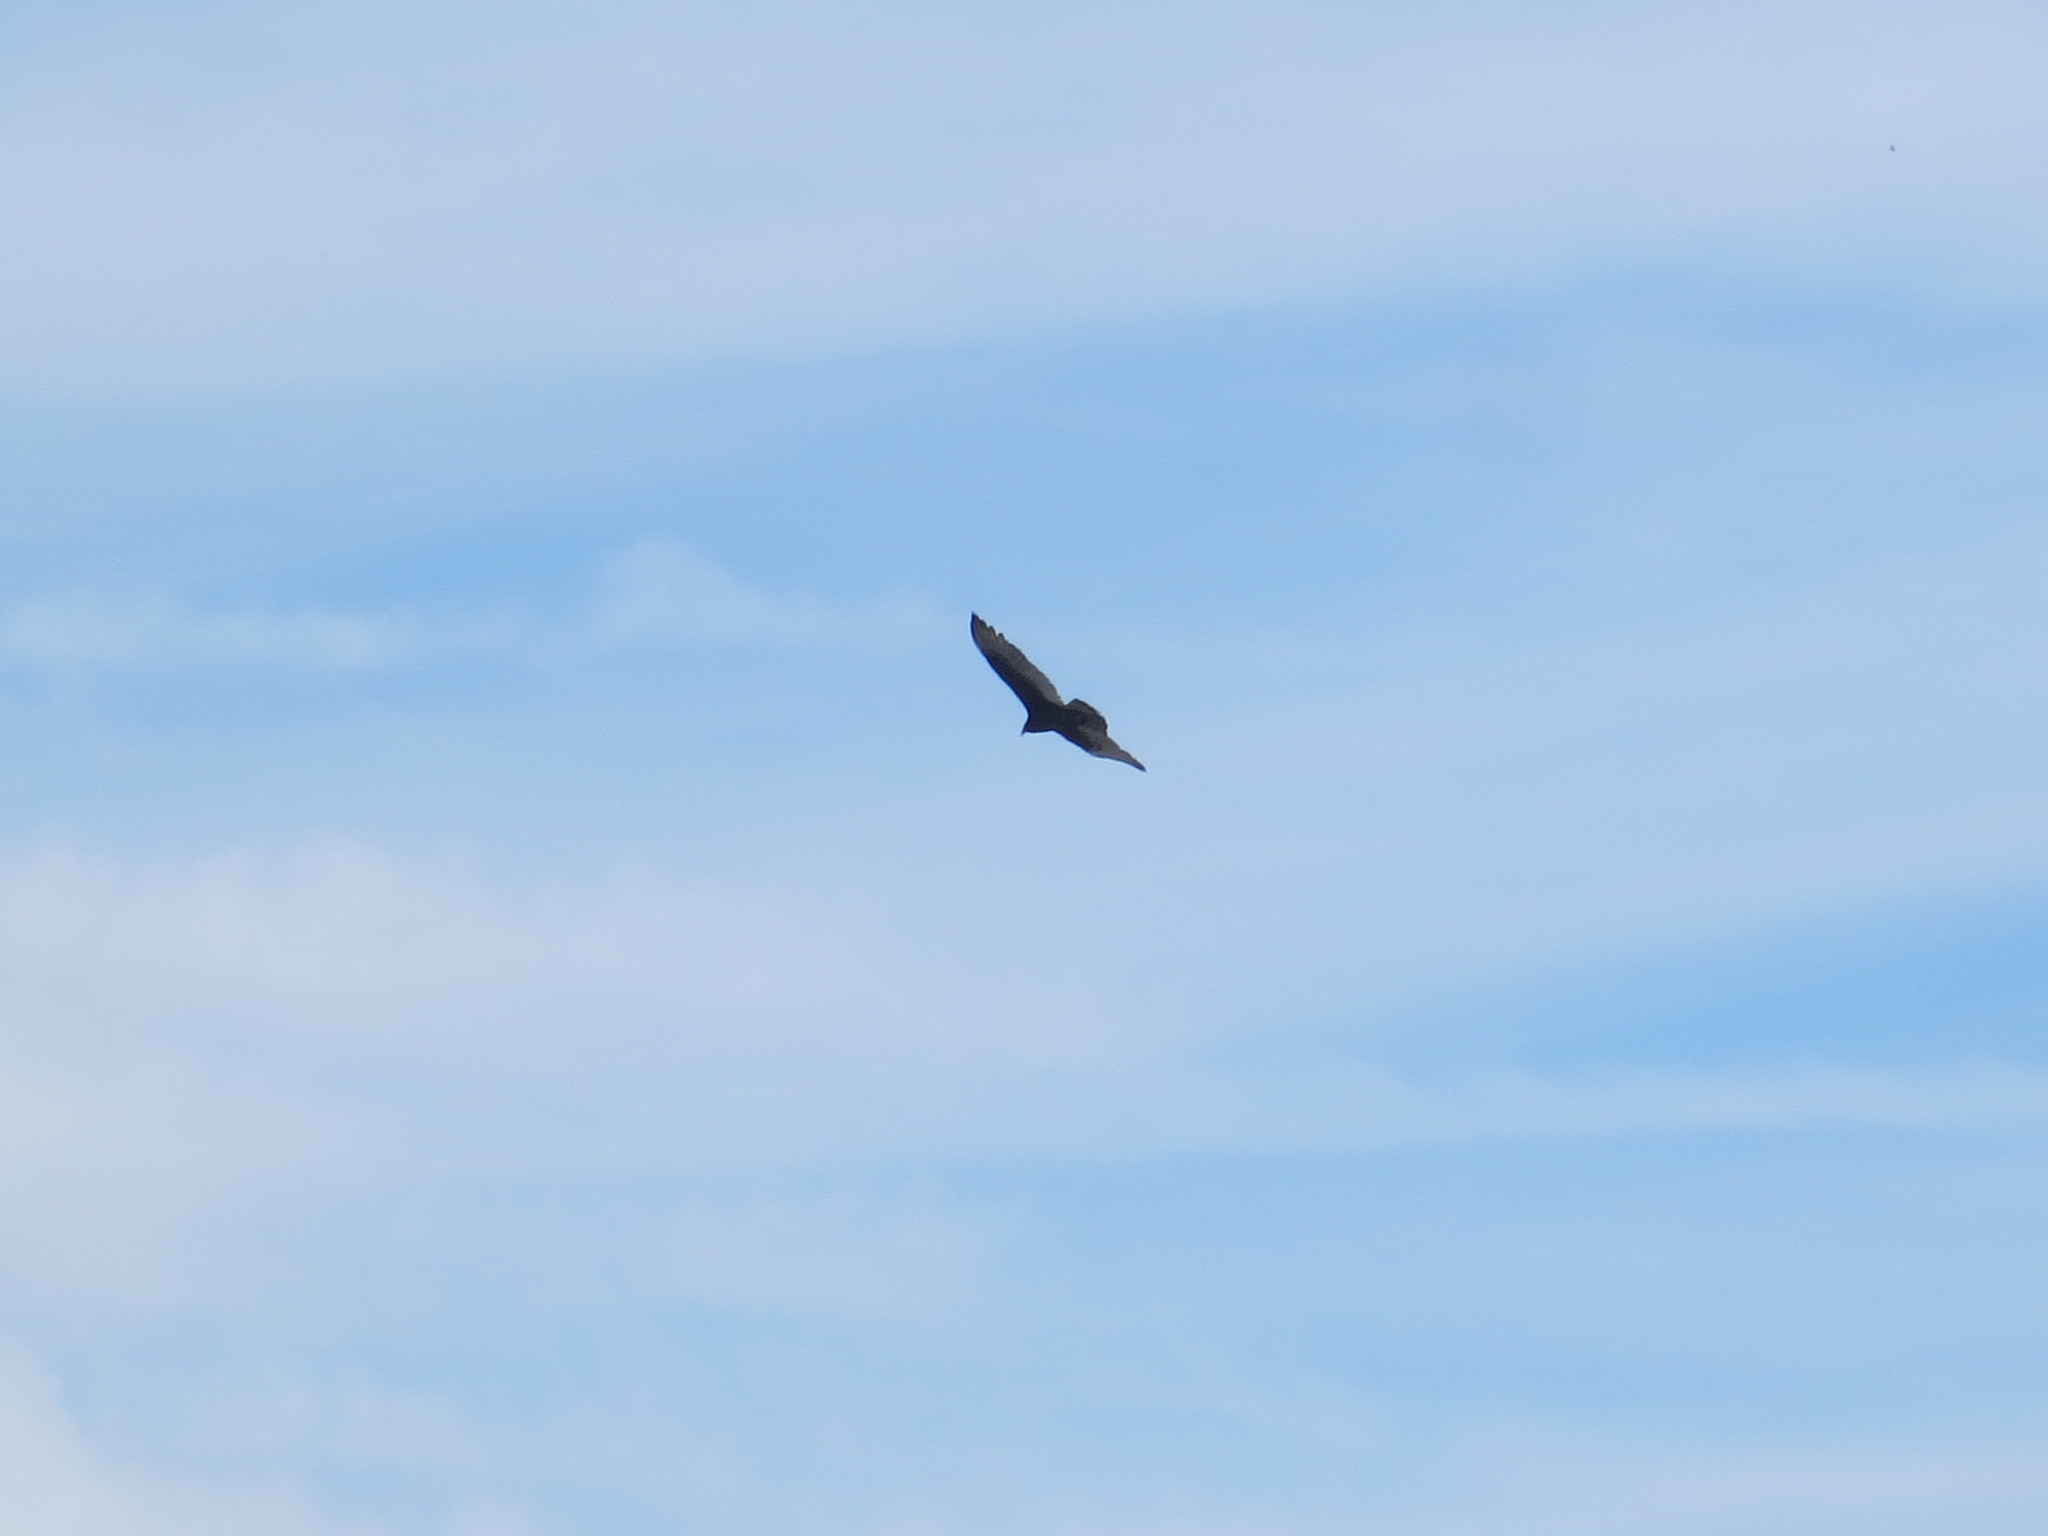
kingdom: Animalia
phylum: Chordata
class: Aves
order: Accipitriformes
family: Cathartidae
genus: Cathartes
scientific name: Cathartes aura
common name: Turkey vulture
